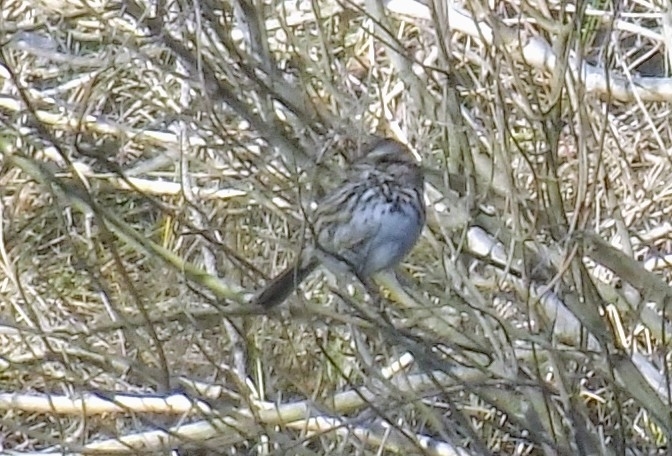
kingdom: Animalia
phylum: Chordata
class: Aves
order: Passeriformes
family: Passerellidae
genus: Melospiza
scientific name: Melospiza melodia
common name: Song sparrow
